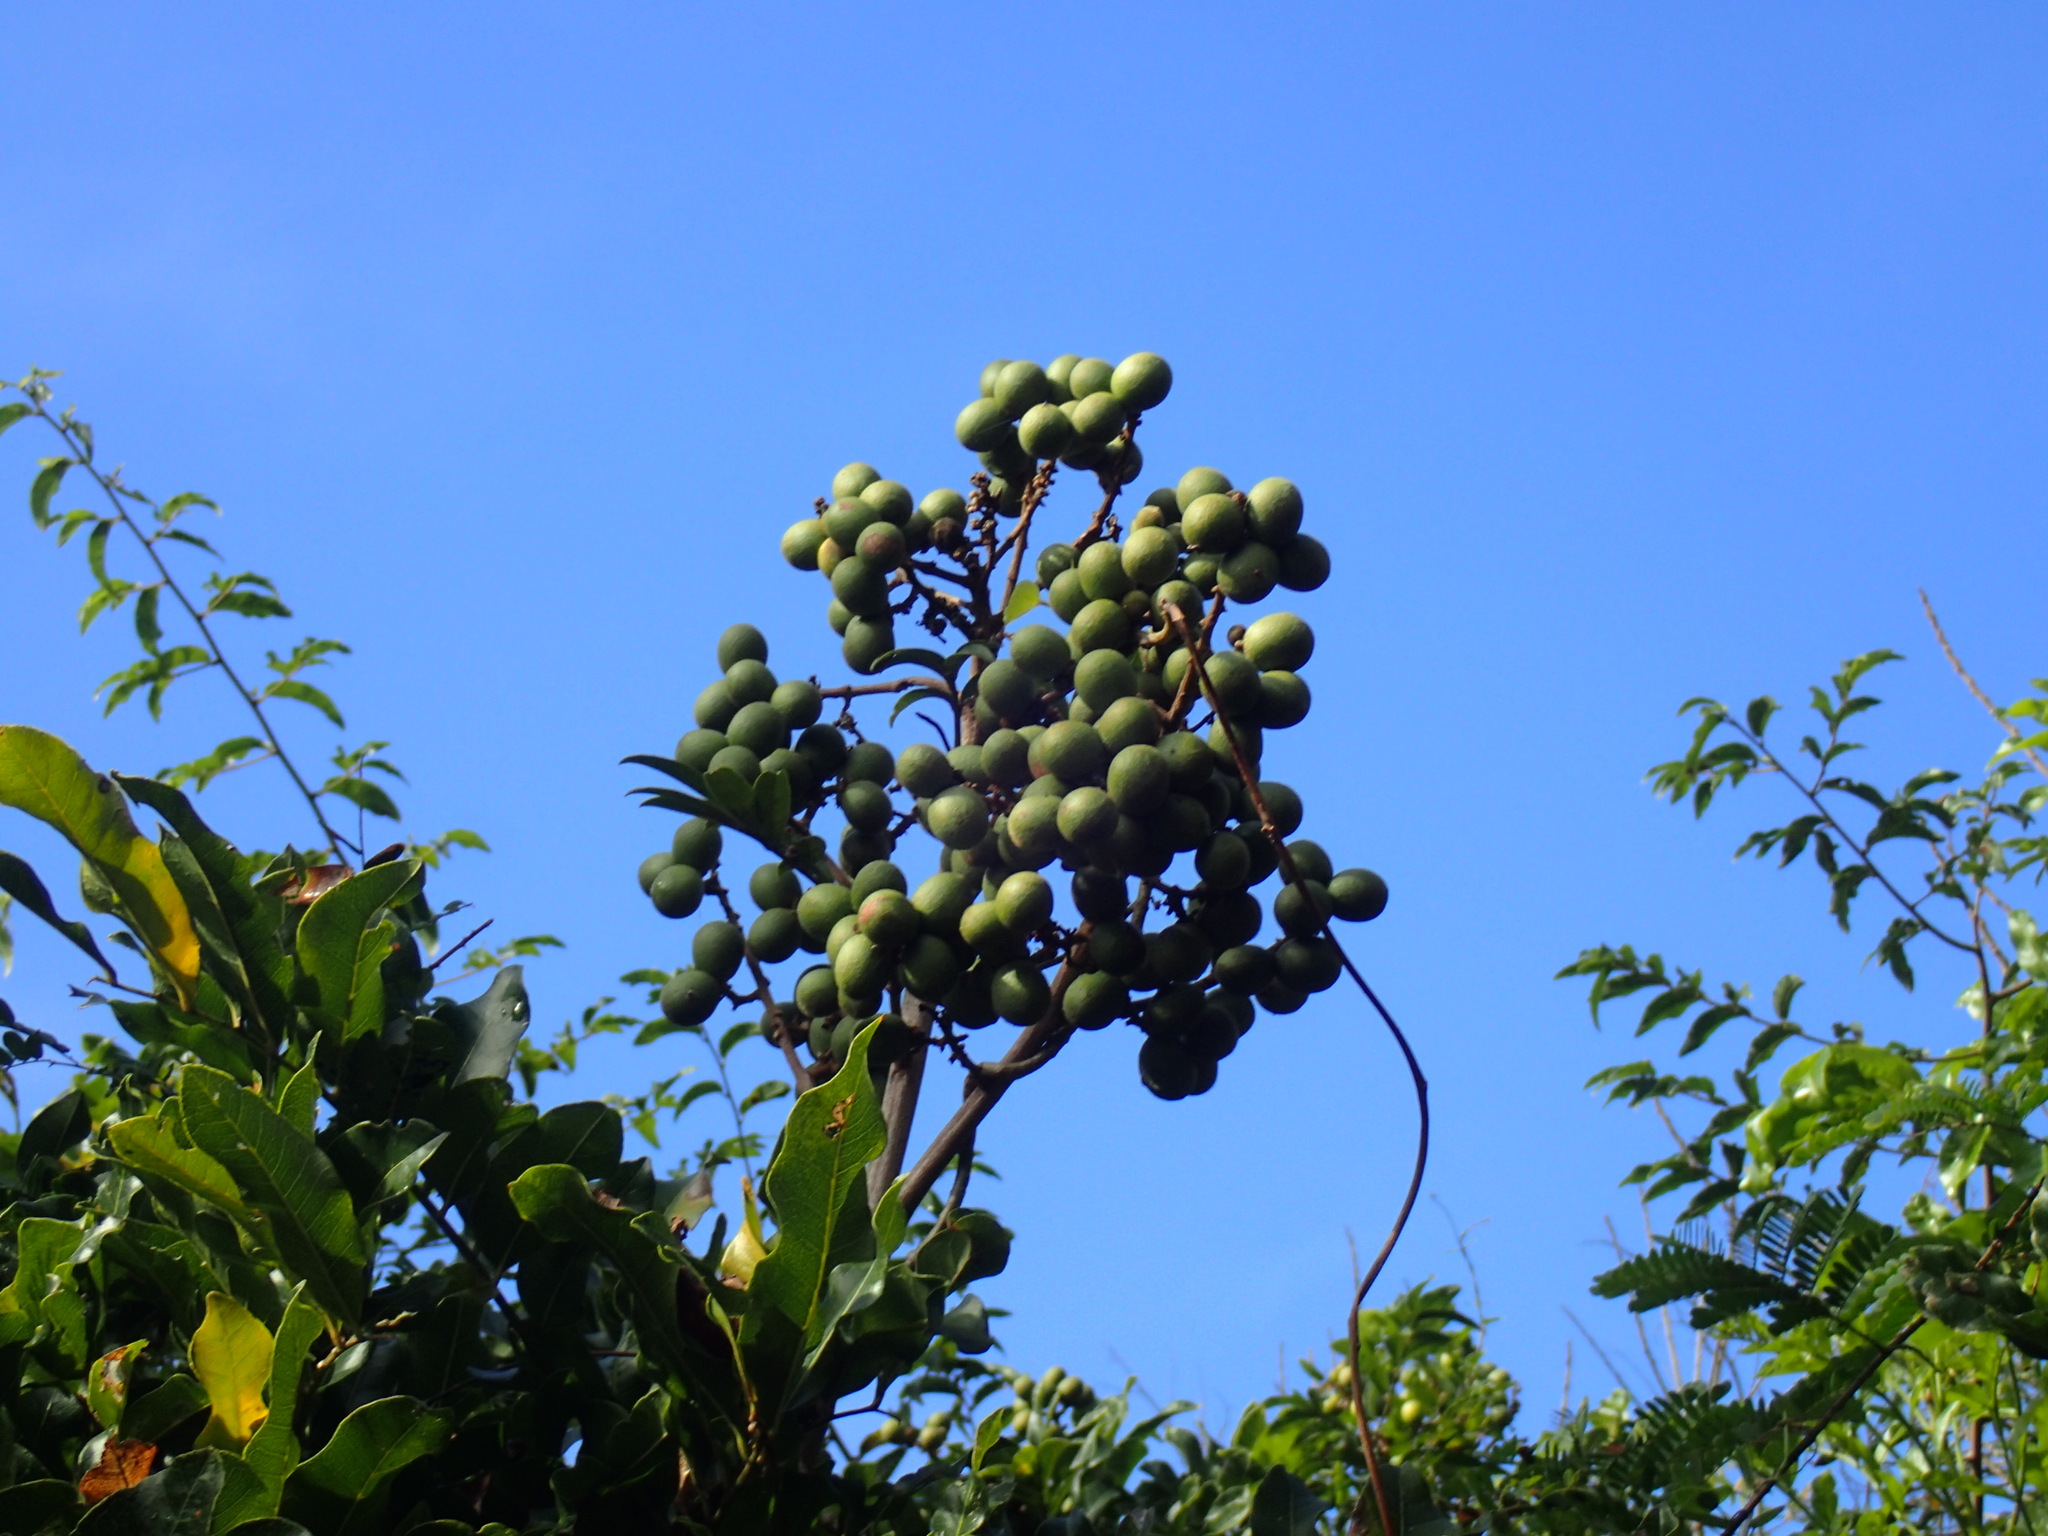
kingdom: Plantae
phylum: Tracheophyta
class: Magnoliopsida
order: Sapindales
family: Sapindaceae
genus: Deinbollia
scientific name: Deinbollia oblongifolia
